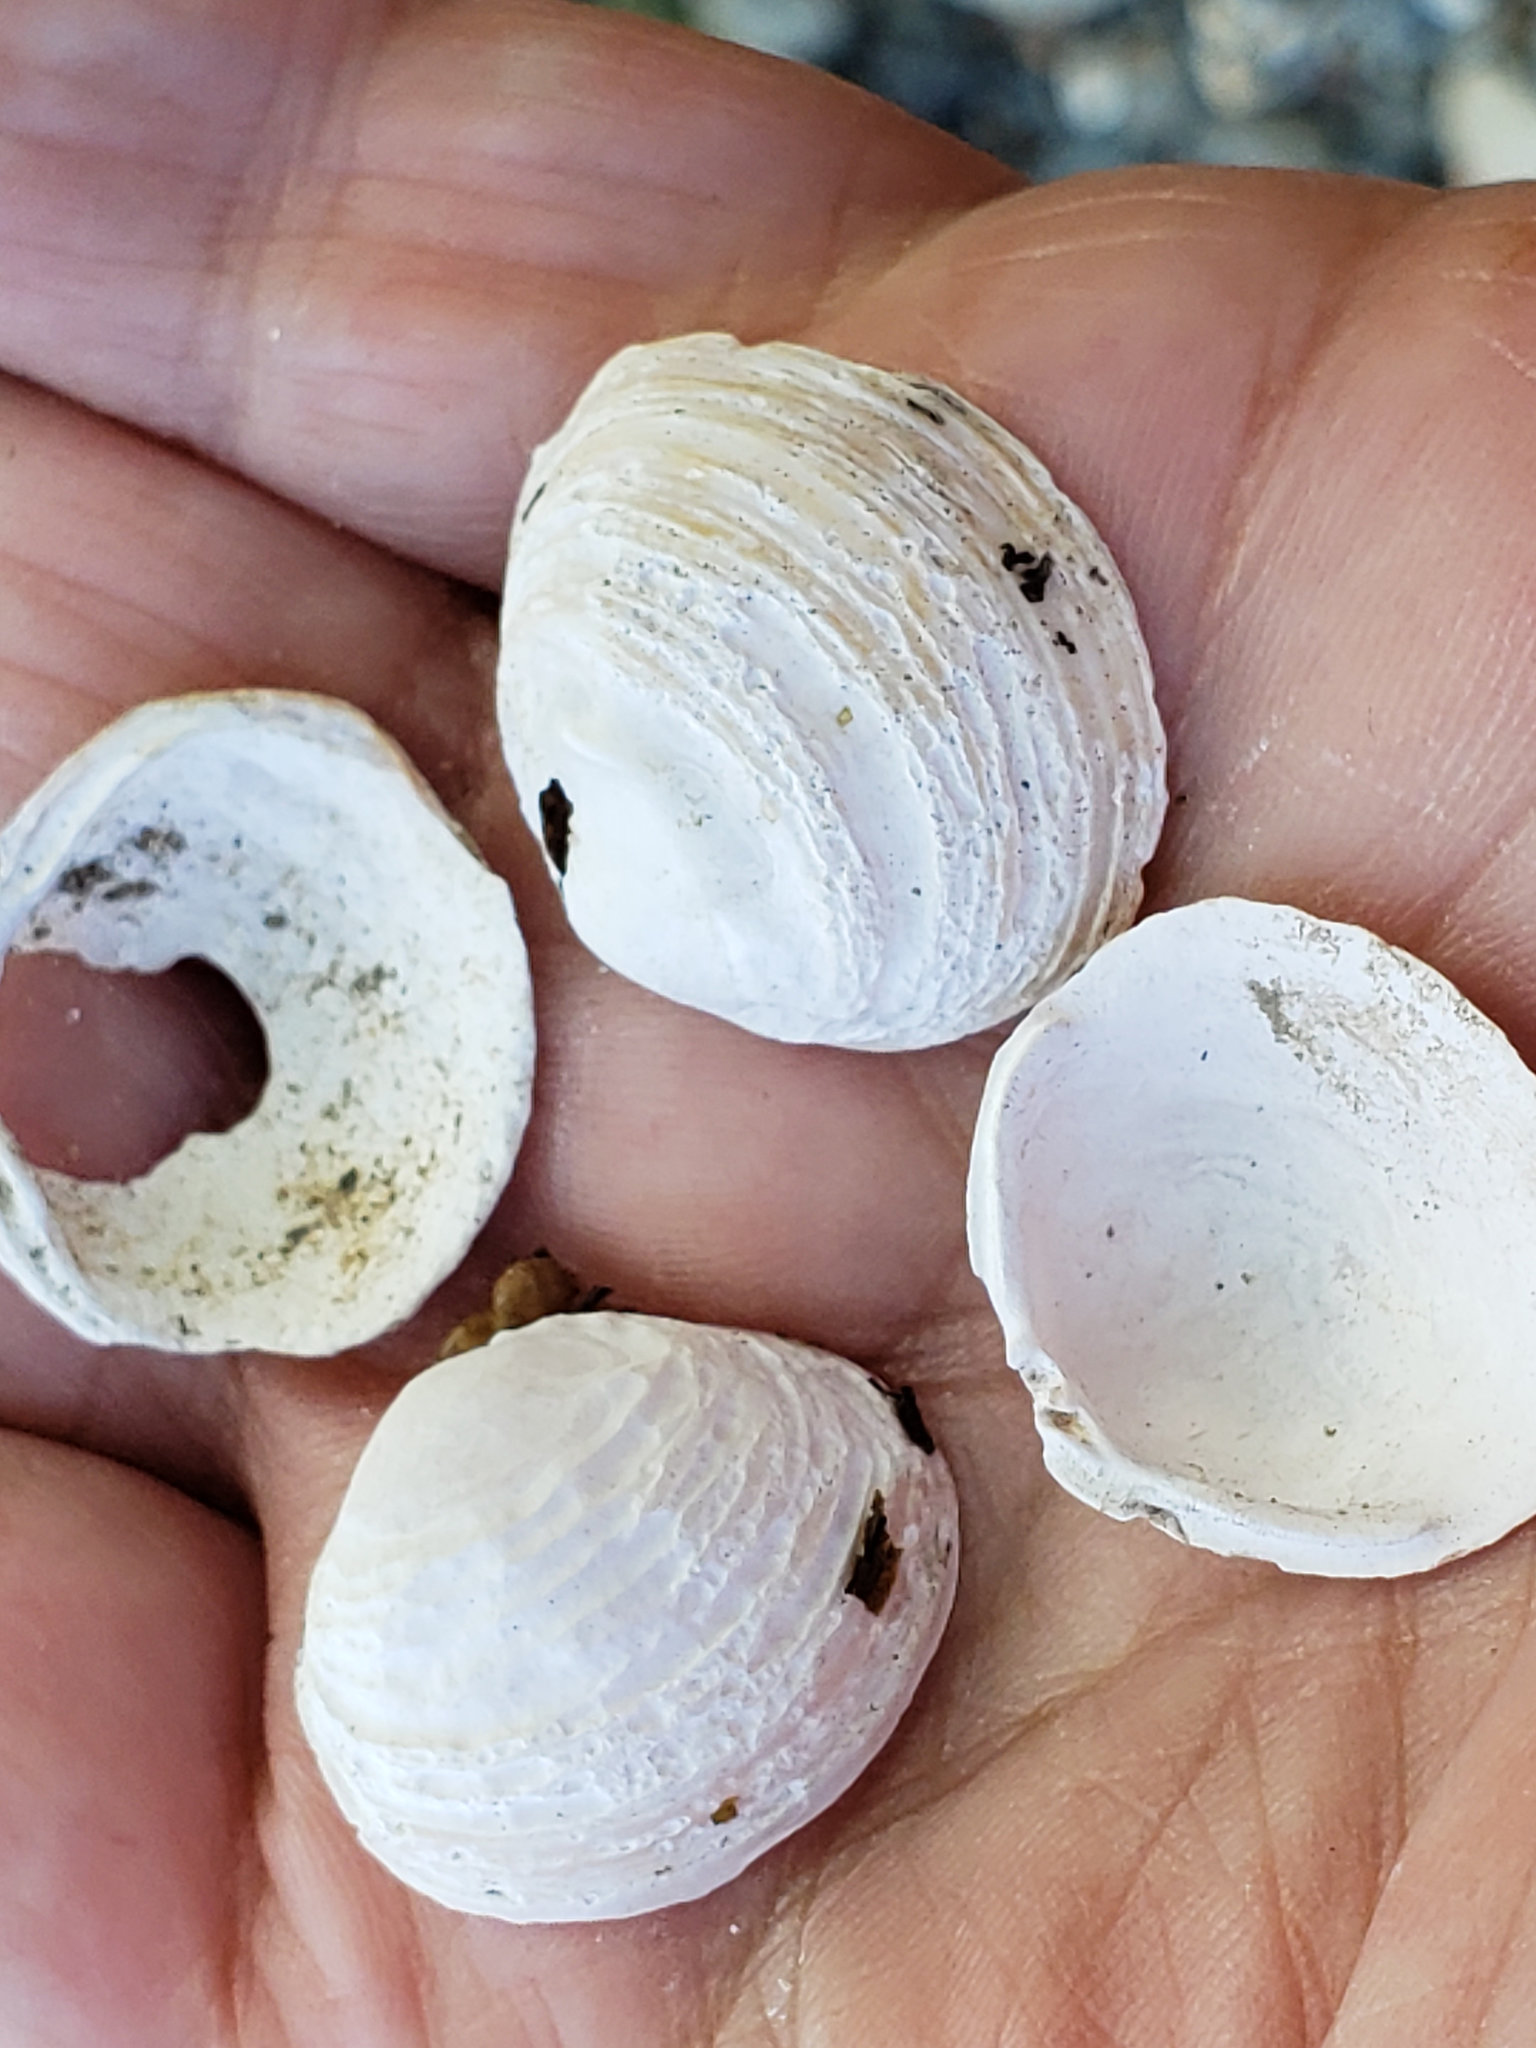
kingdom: Animalia
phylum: Mollusca
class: Bivalvia
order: Venerida
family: Cyrenidae
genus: Corbicula
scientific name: Corbicula fluminea
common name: Asian clam
